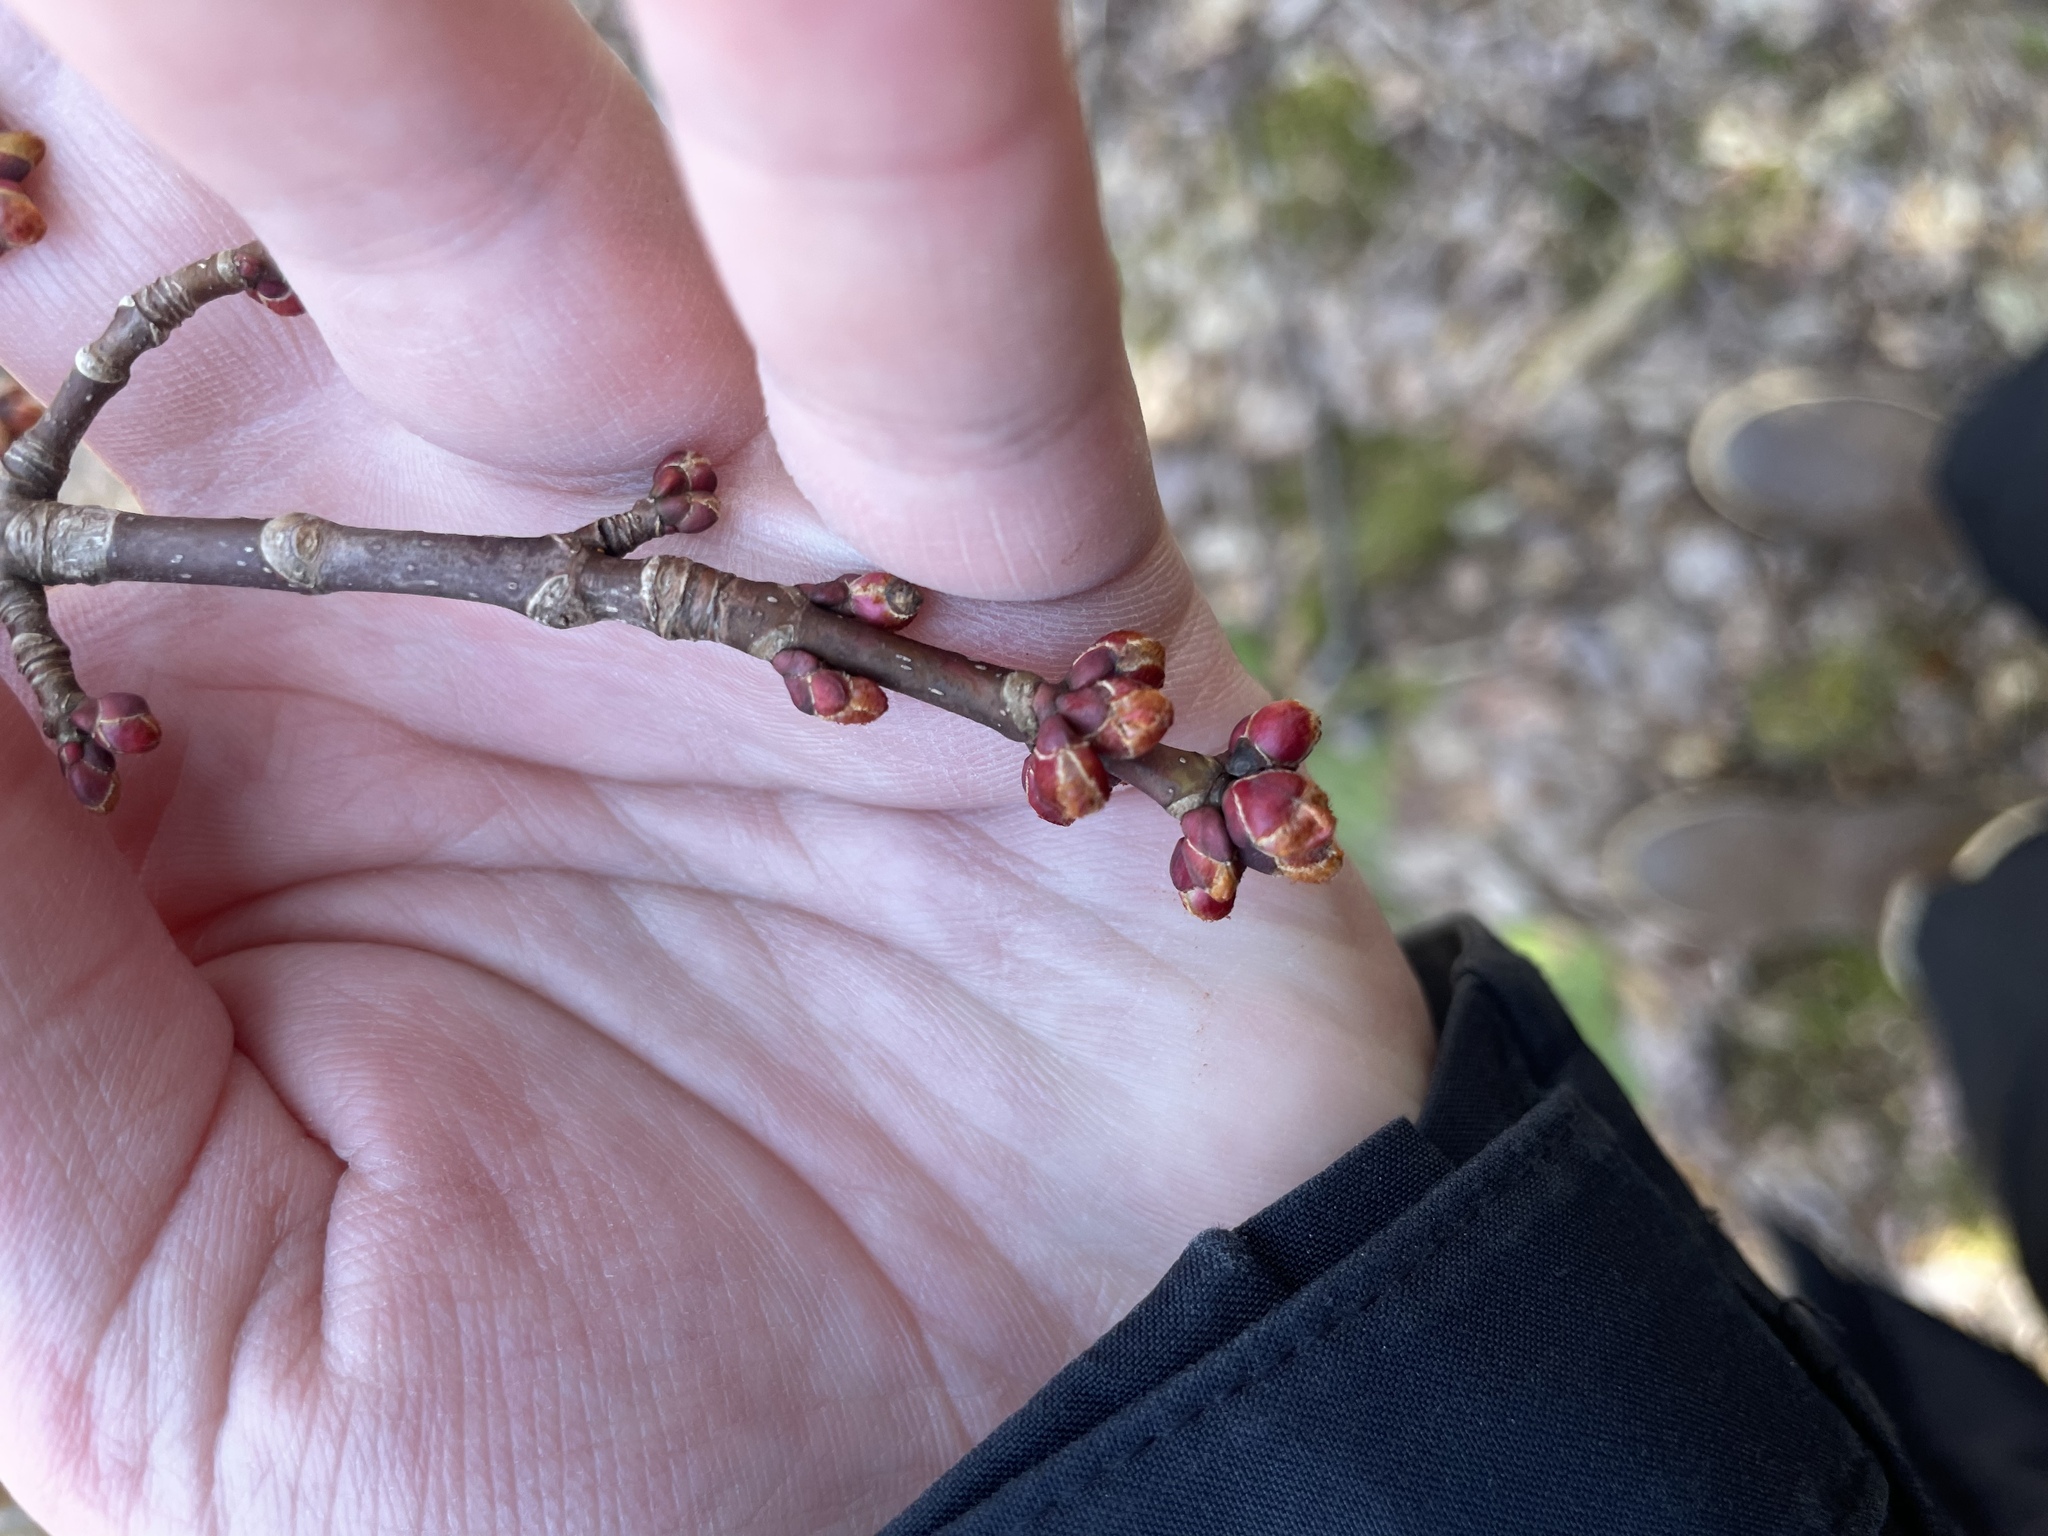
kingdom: Plantae
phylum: Tracheophyta
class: Magnoliopsida
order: Sapindales
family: Sapindaceae
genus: Acer
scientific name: Acer rubrum
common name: Red maple
